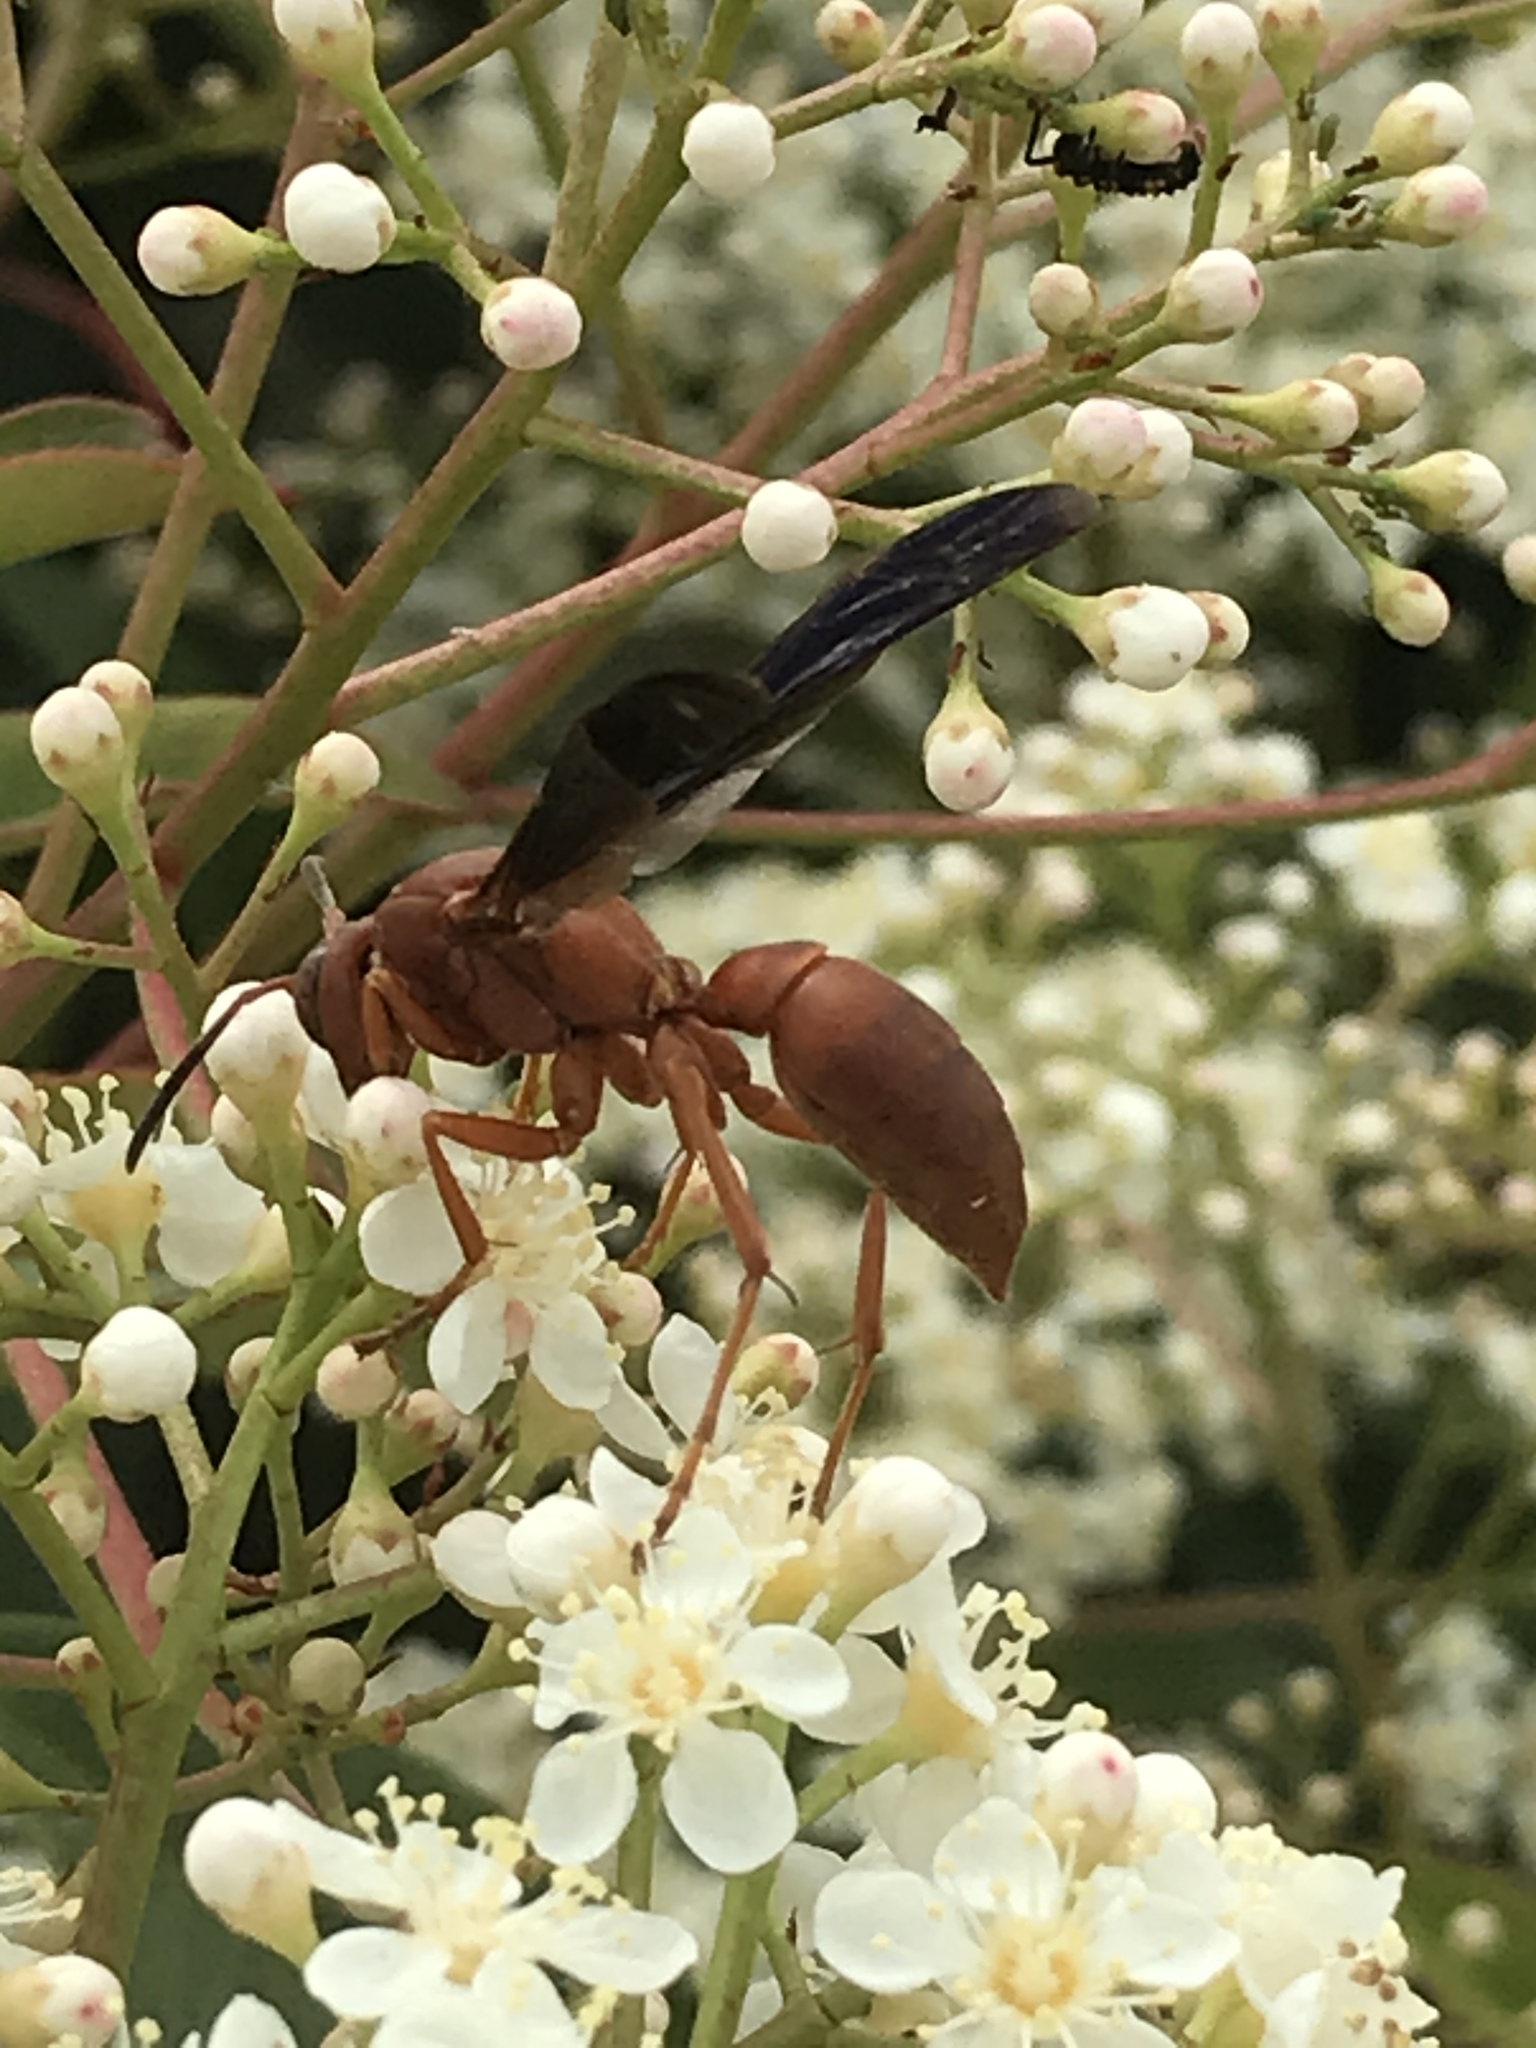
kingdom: Animalia
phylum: Arthropoda
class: Insecta
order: Hymenoptera
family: Vespidae
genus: Fuscopolistes
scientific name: Fuscopolistes
